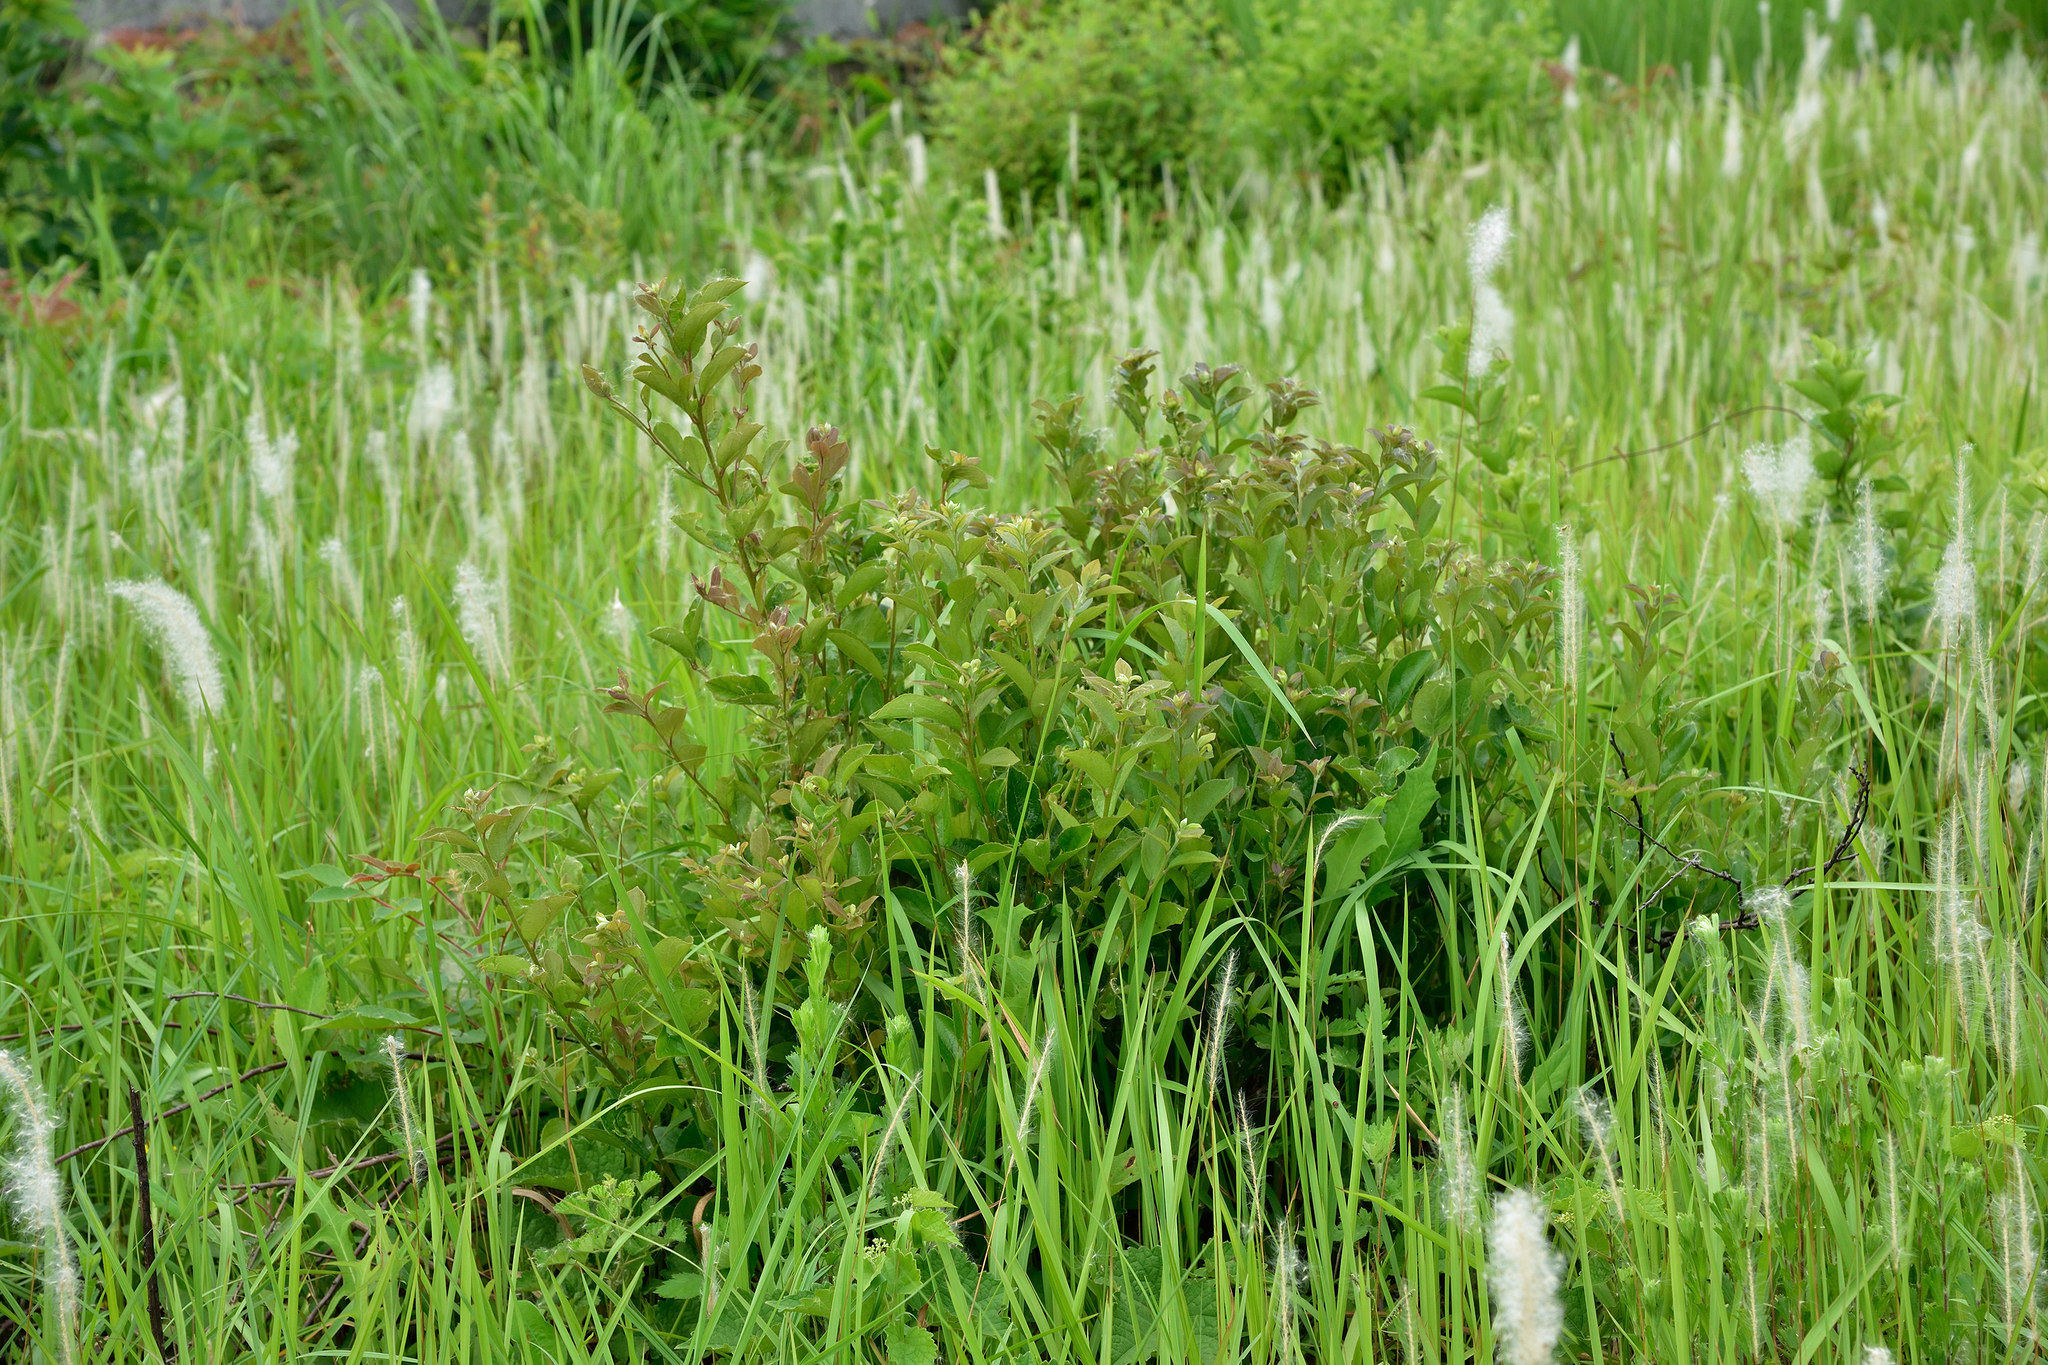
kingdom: Plantae
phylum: Tracheophyta
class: Magnoliopsida
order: Ericales
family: Symplocaceae
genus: Symplocos
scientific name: Symplocos paniculata
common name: Sapphire-berry
